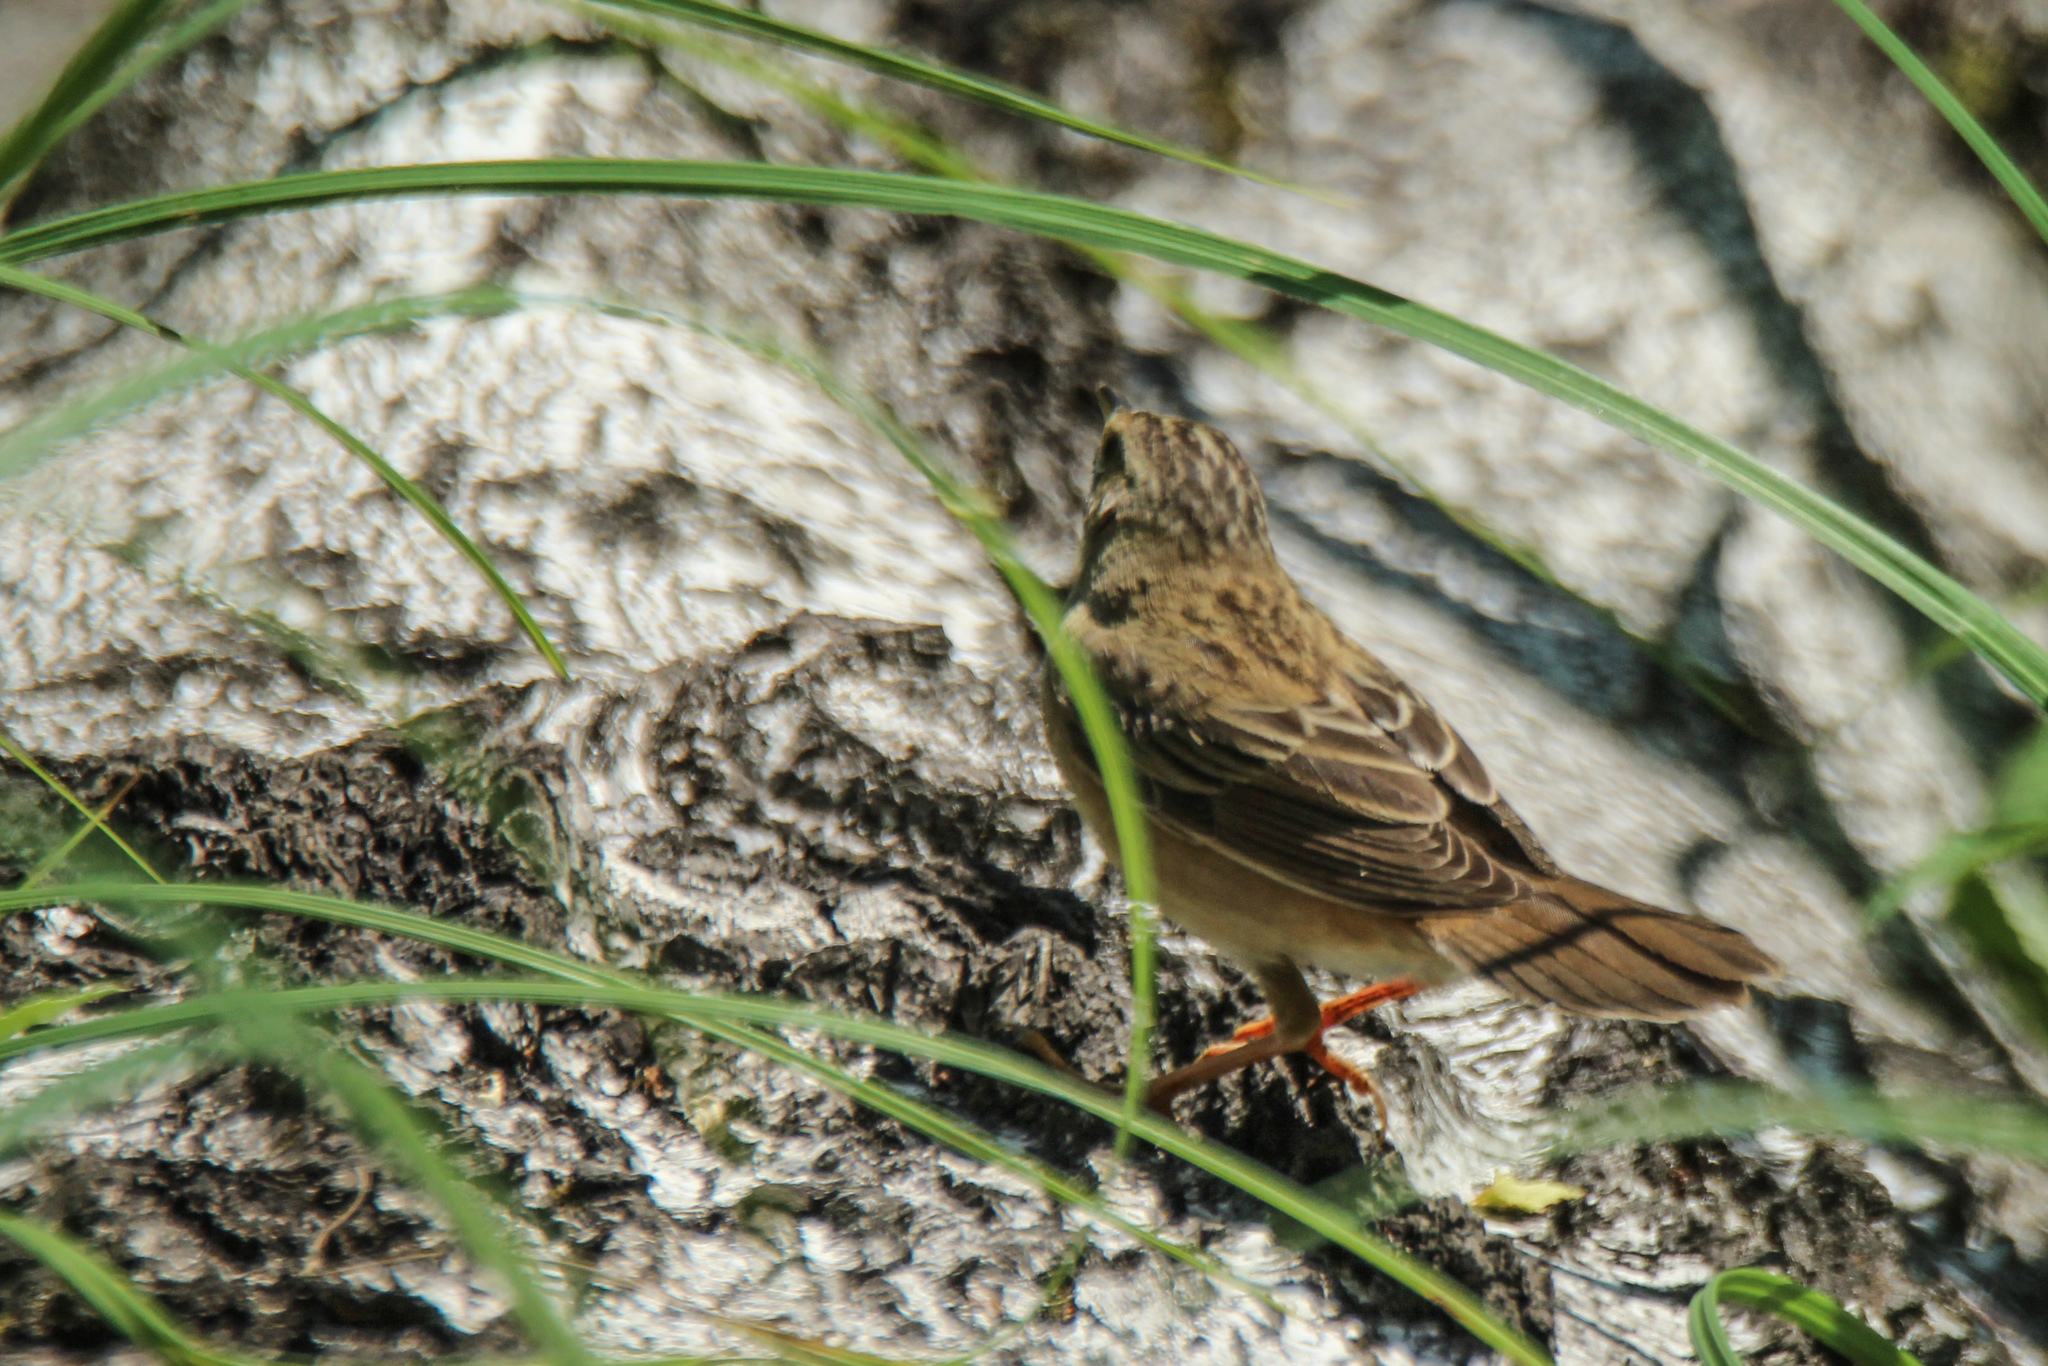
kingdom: Animalia
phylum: Chordata
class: Aves
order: Passeriformes
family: Locustellidae
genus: Locustella
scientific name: Locustella certhiola
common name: Pallas's grasshopper warbler
